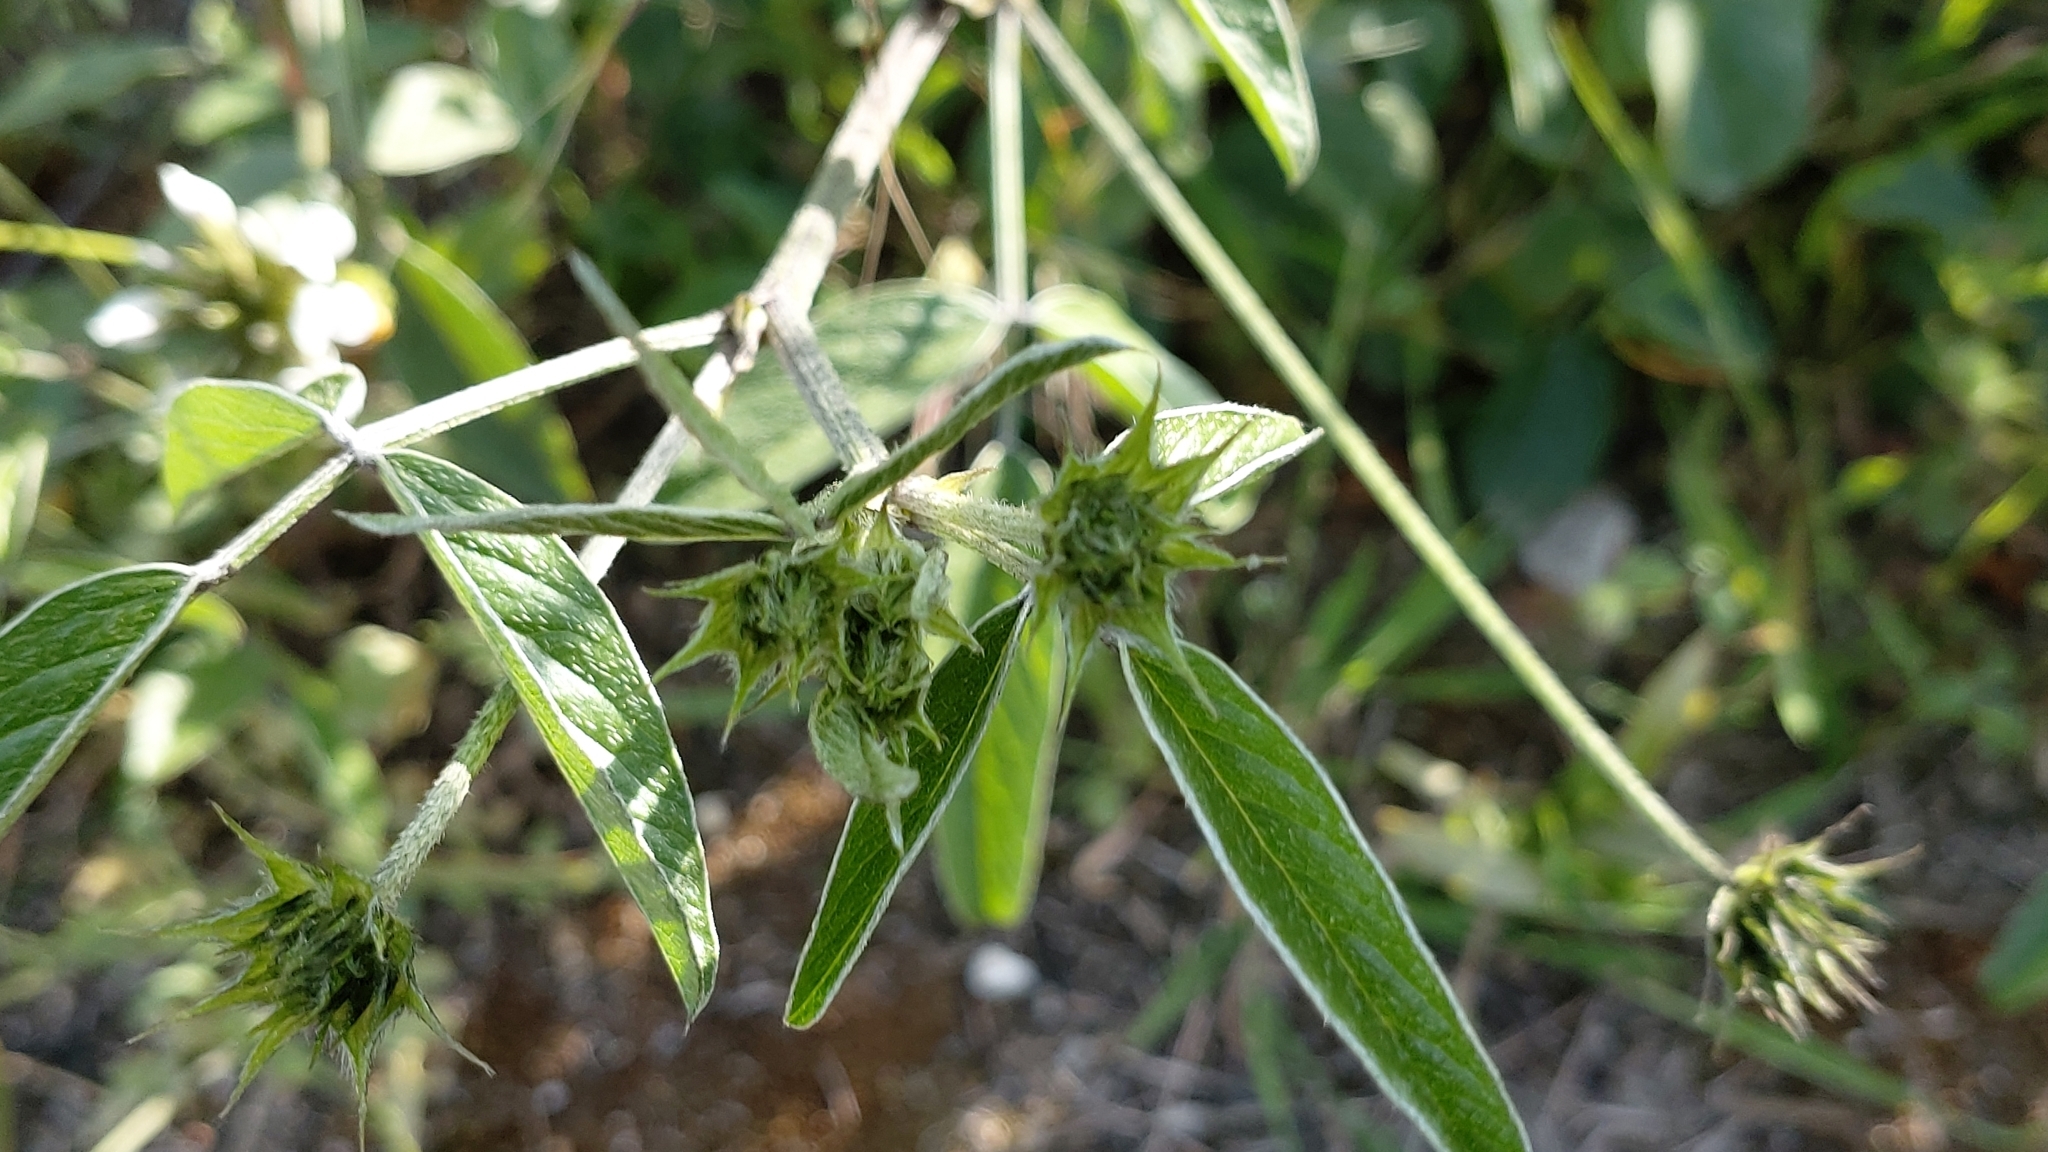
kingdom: Plantae
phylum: Tracheophyta
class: Magnoliopsida
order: Fabales
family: Fabaceae
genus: Bituminaria
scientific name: Bituminaria bituminosa
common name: Arabian pea
